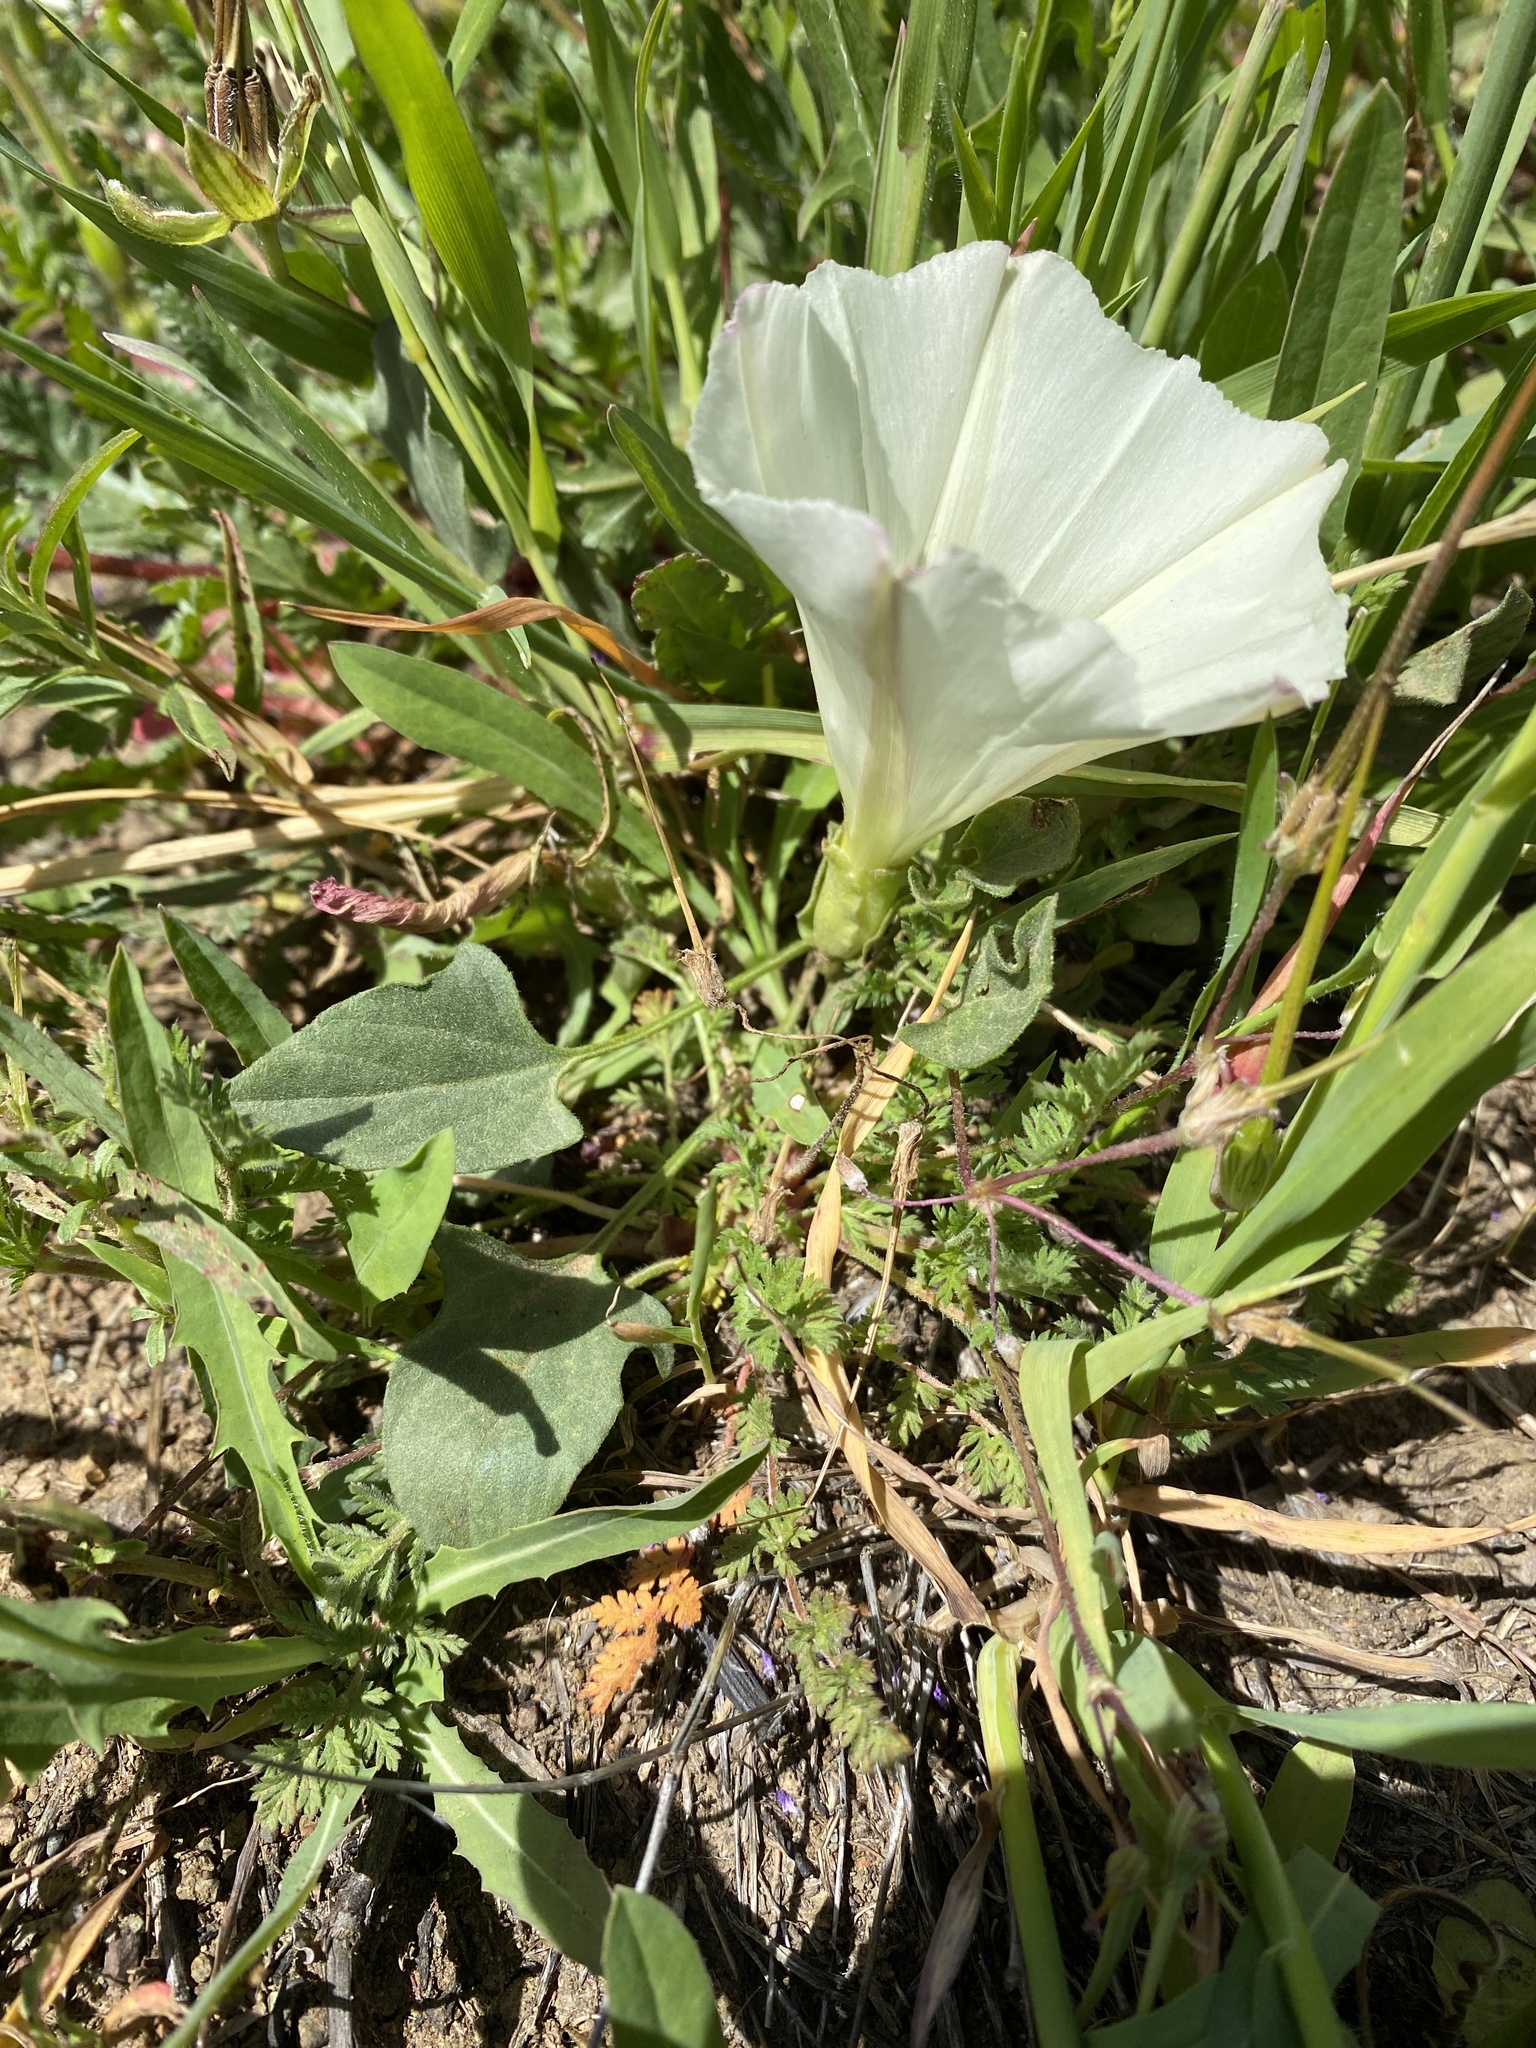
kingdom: Plantae
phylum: Tracheophyta
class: Magnoliopsida
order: Solanales
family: Convolvulaceae
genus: Calystegia
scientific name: Calystegia subacaulis
